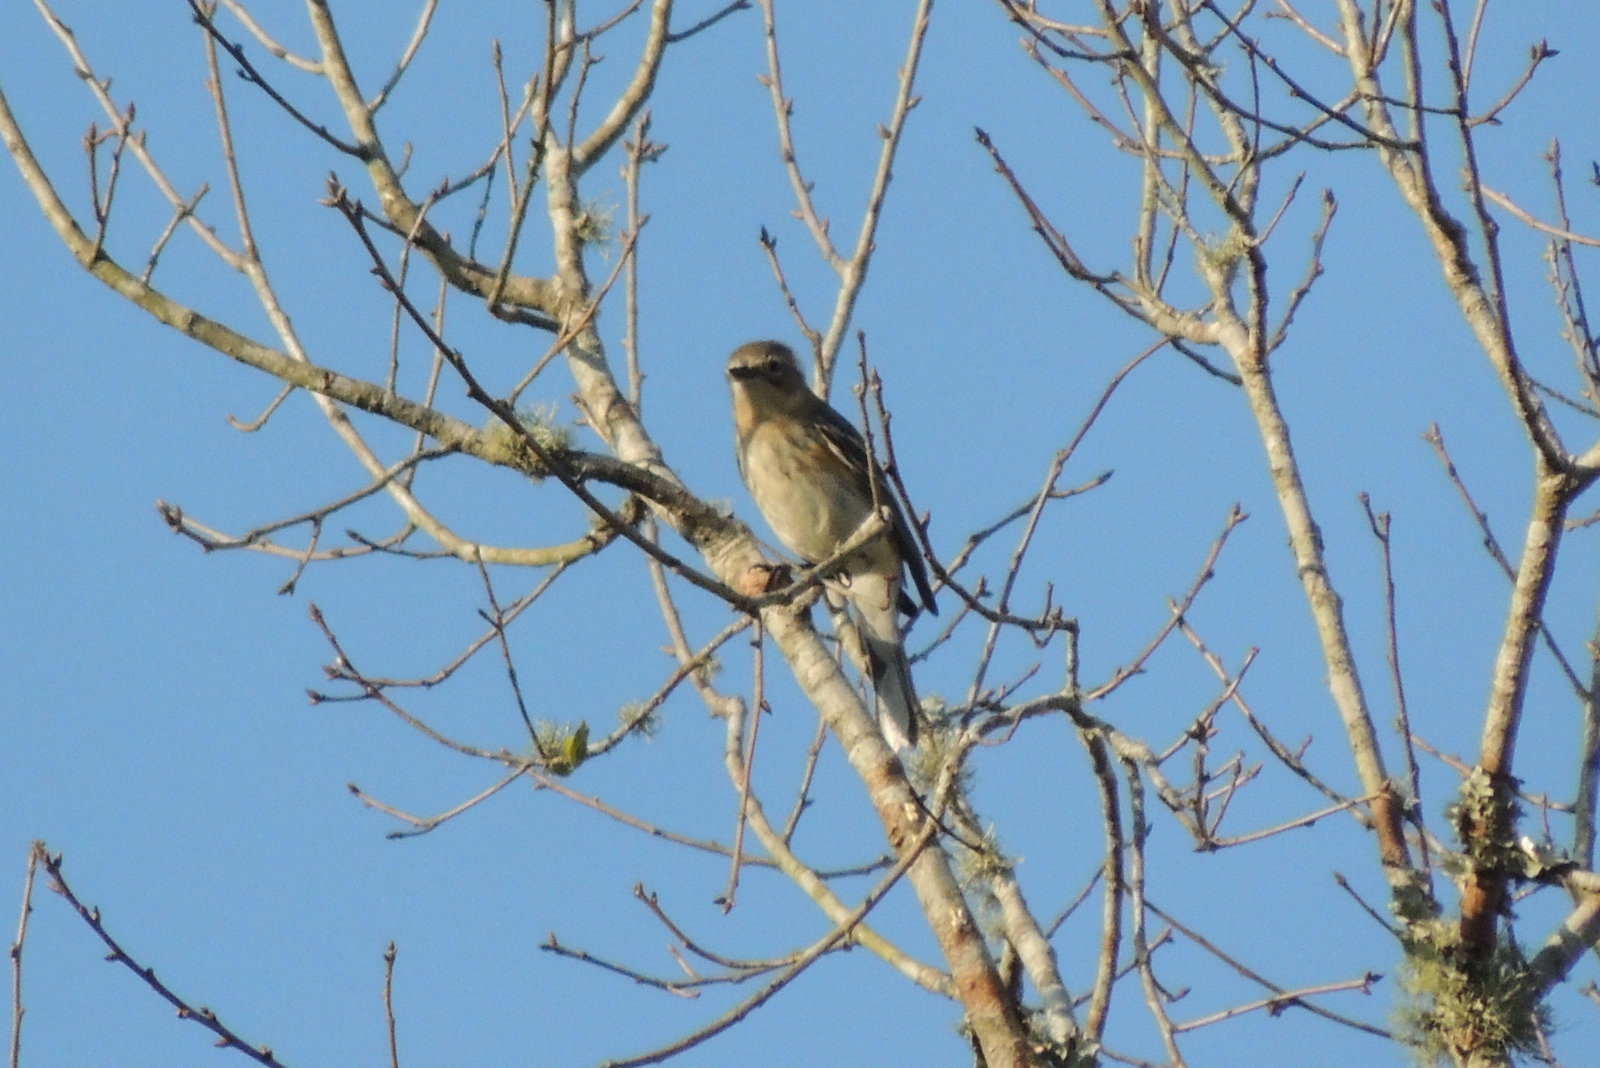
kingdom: Animalia
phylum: Chordata
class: Aves
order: Passeriformes
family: Parulidae
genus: Setophaga
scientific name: Setophaga coronata
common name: Myrtle warbler
